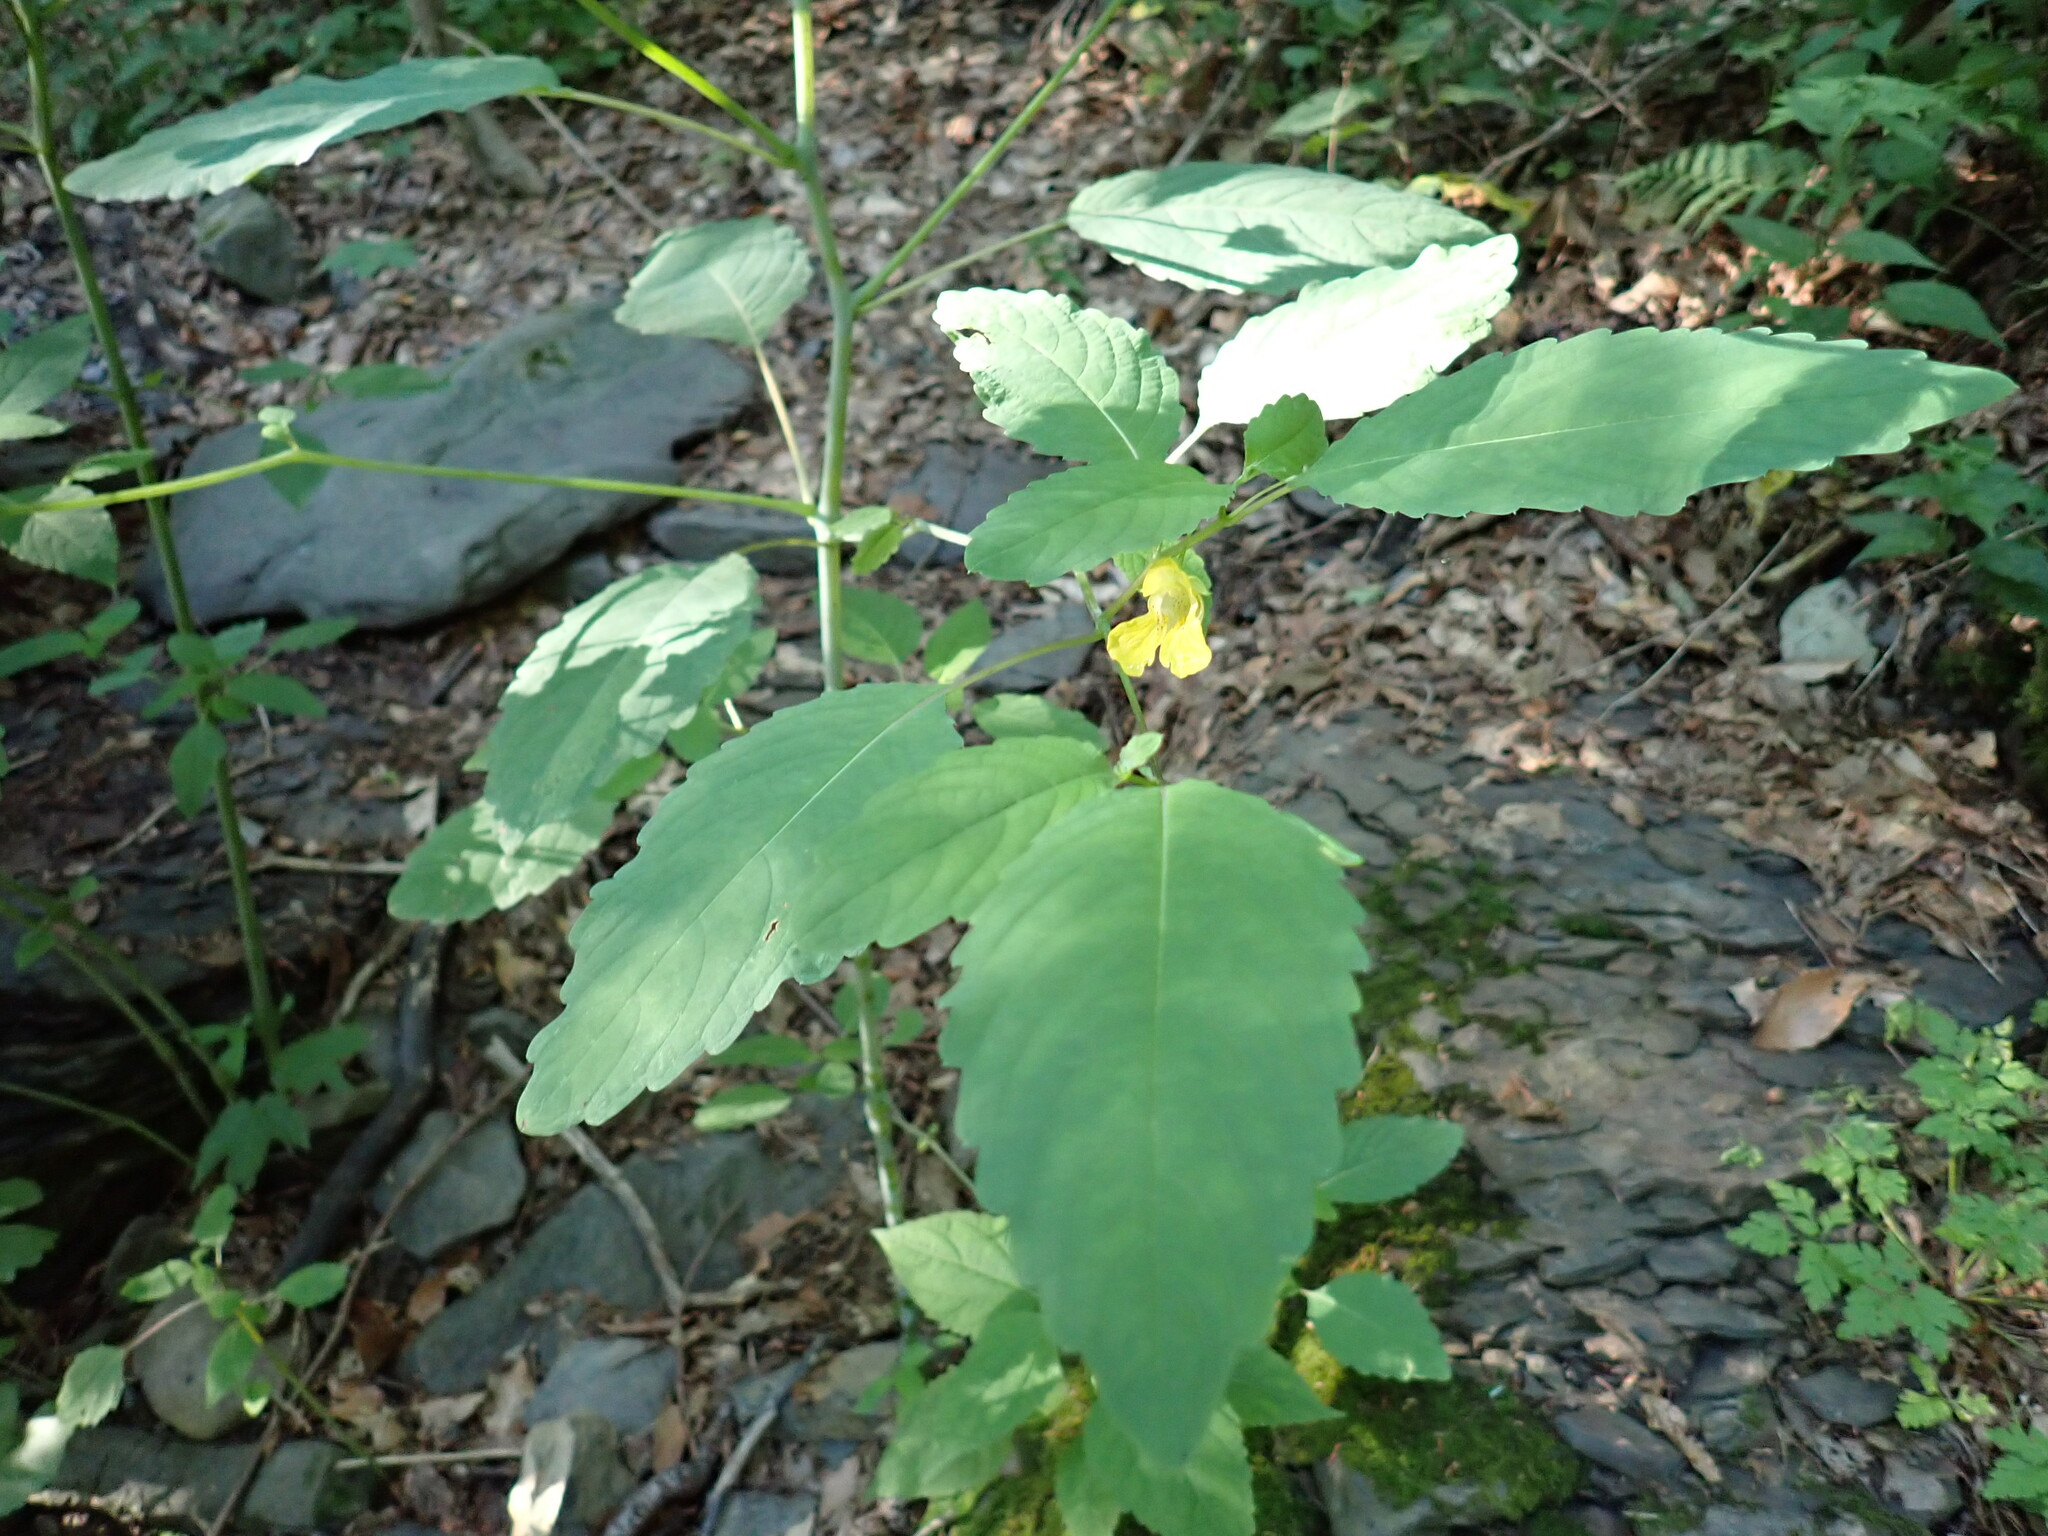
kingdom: Plantae
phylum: Tracheophyta
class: Magnoliopsida
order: Ericales
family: Balsaminaceae
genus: Impatiens
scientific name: Impatiens pallida
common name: Pale snapweed
